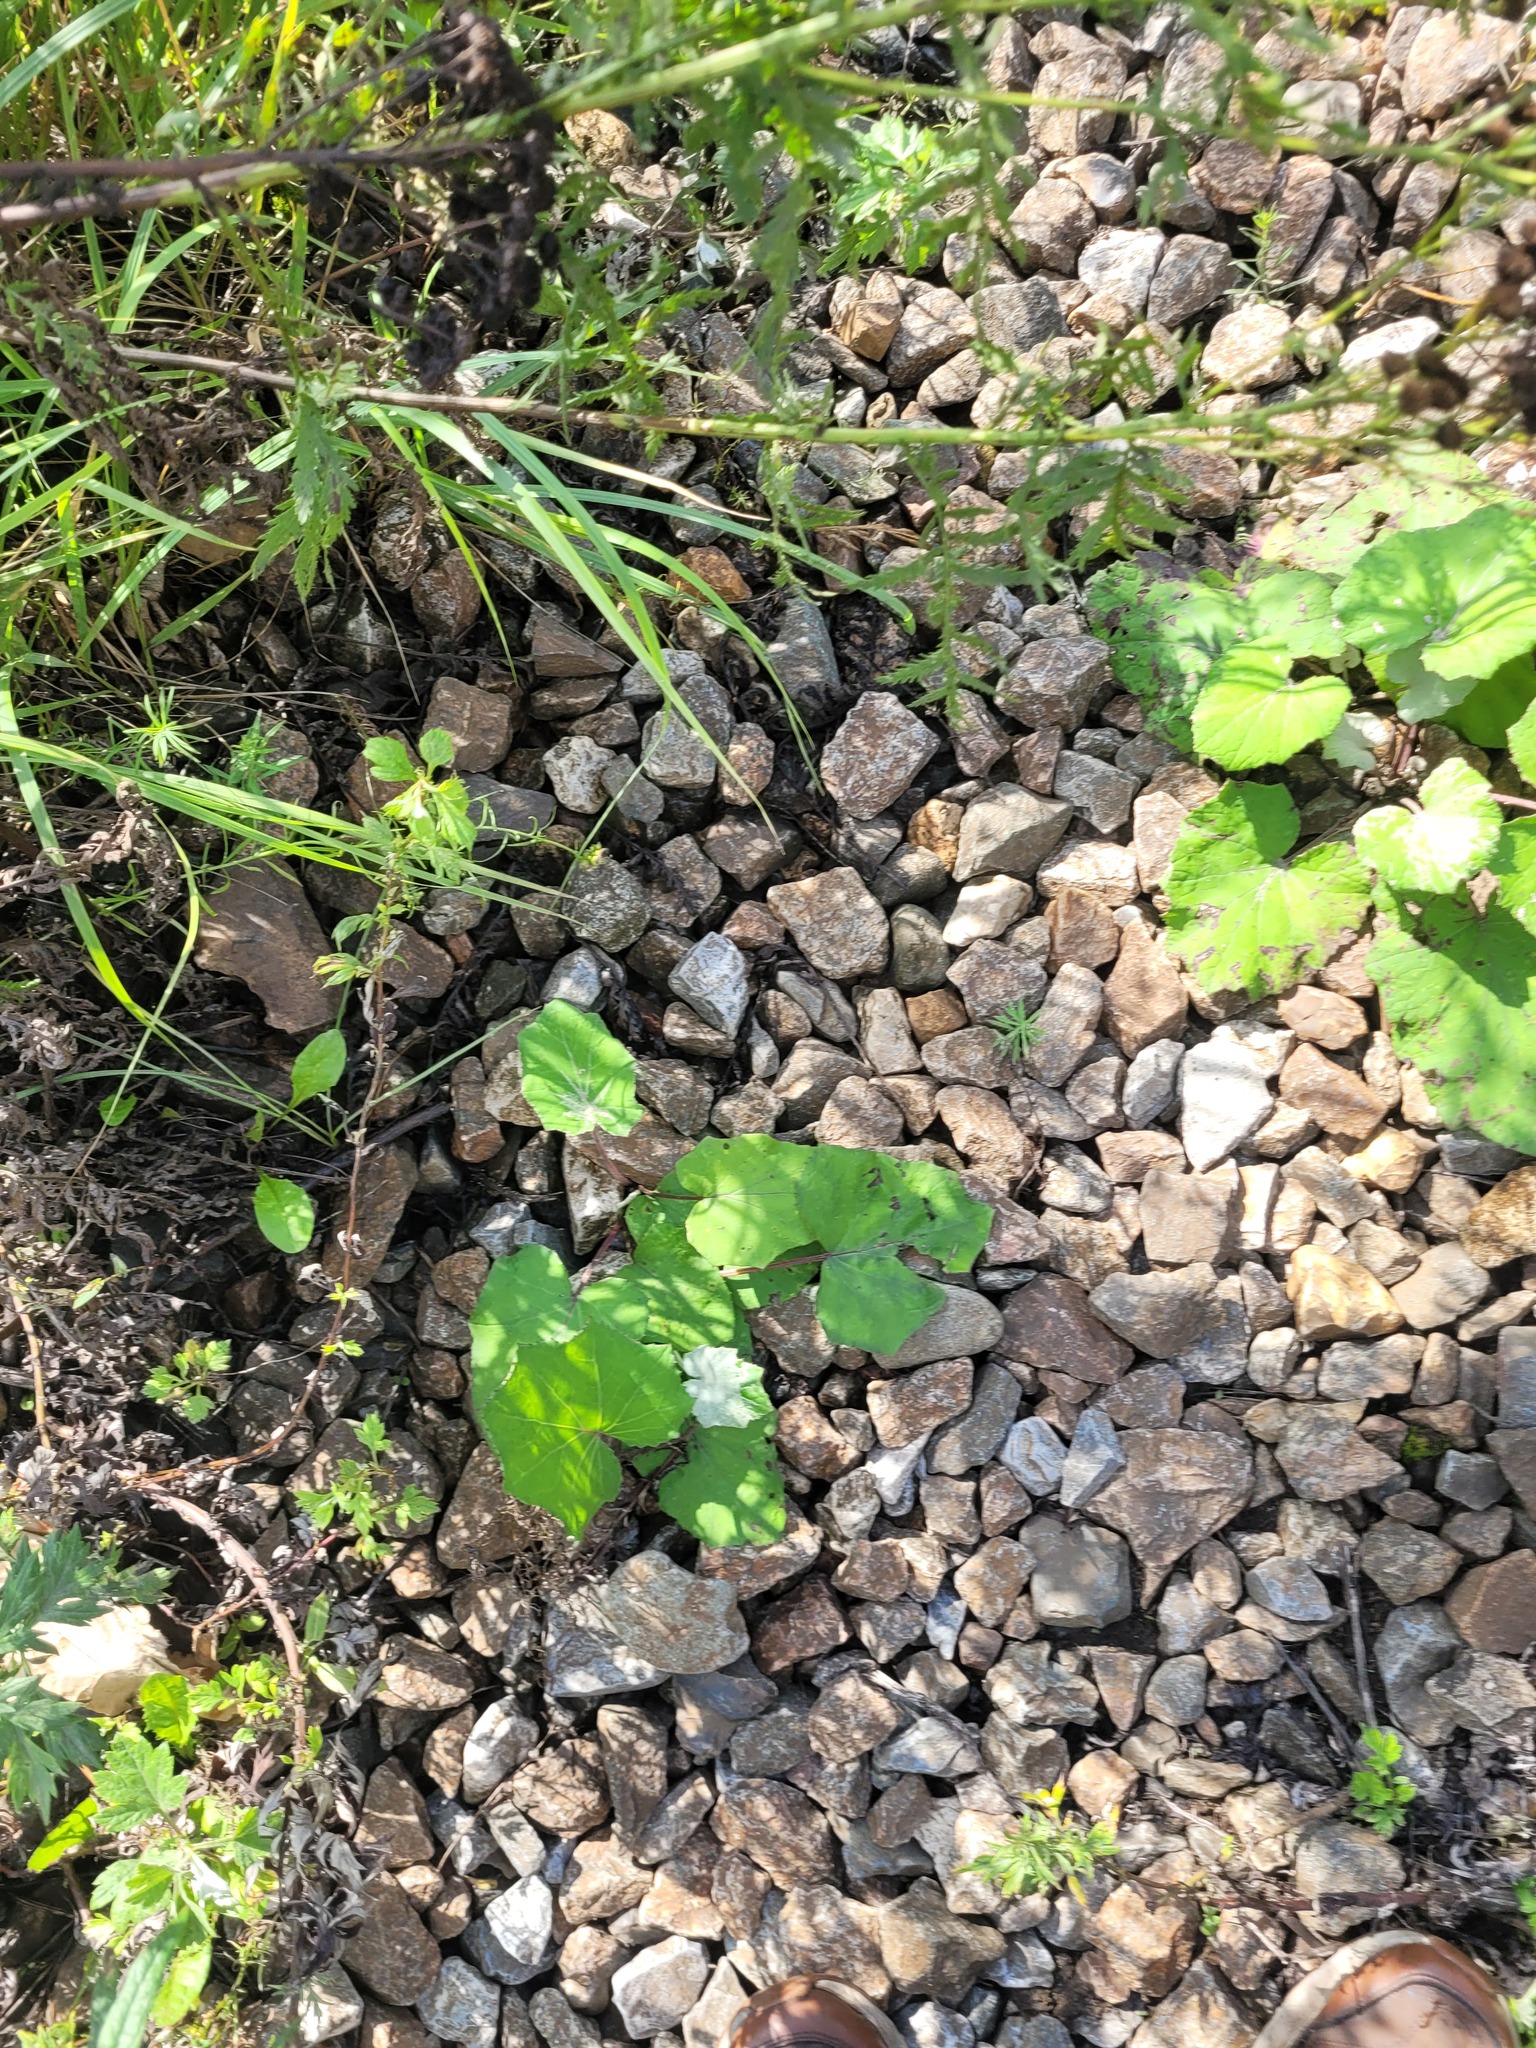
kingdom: Plantae
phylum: Tracheophyta
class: Magnoliopsida
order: Asterales
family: Asteraceae
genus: Tussilago
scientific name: Tussilago farfara
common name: Coltsfoot
